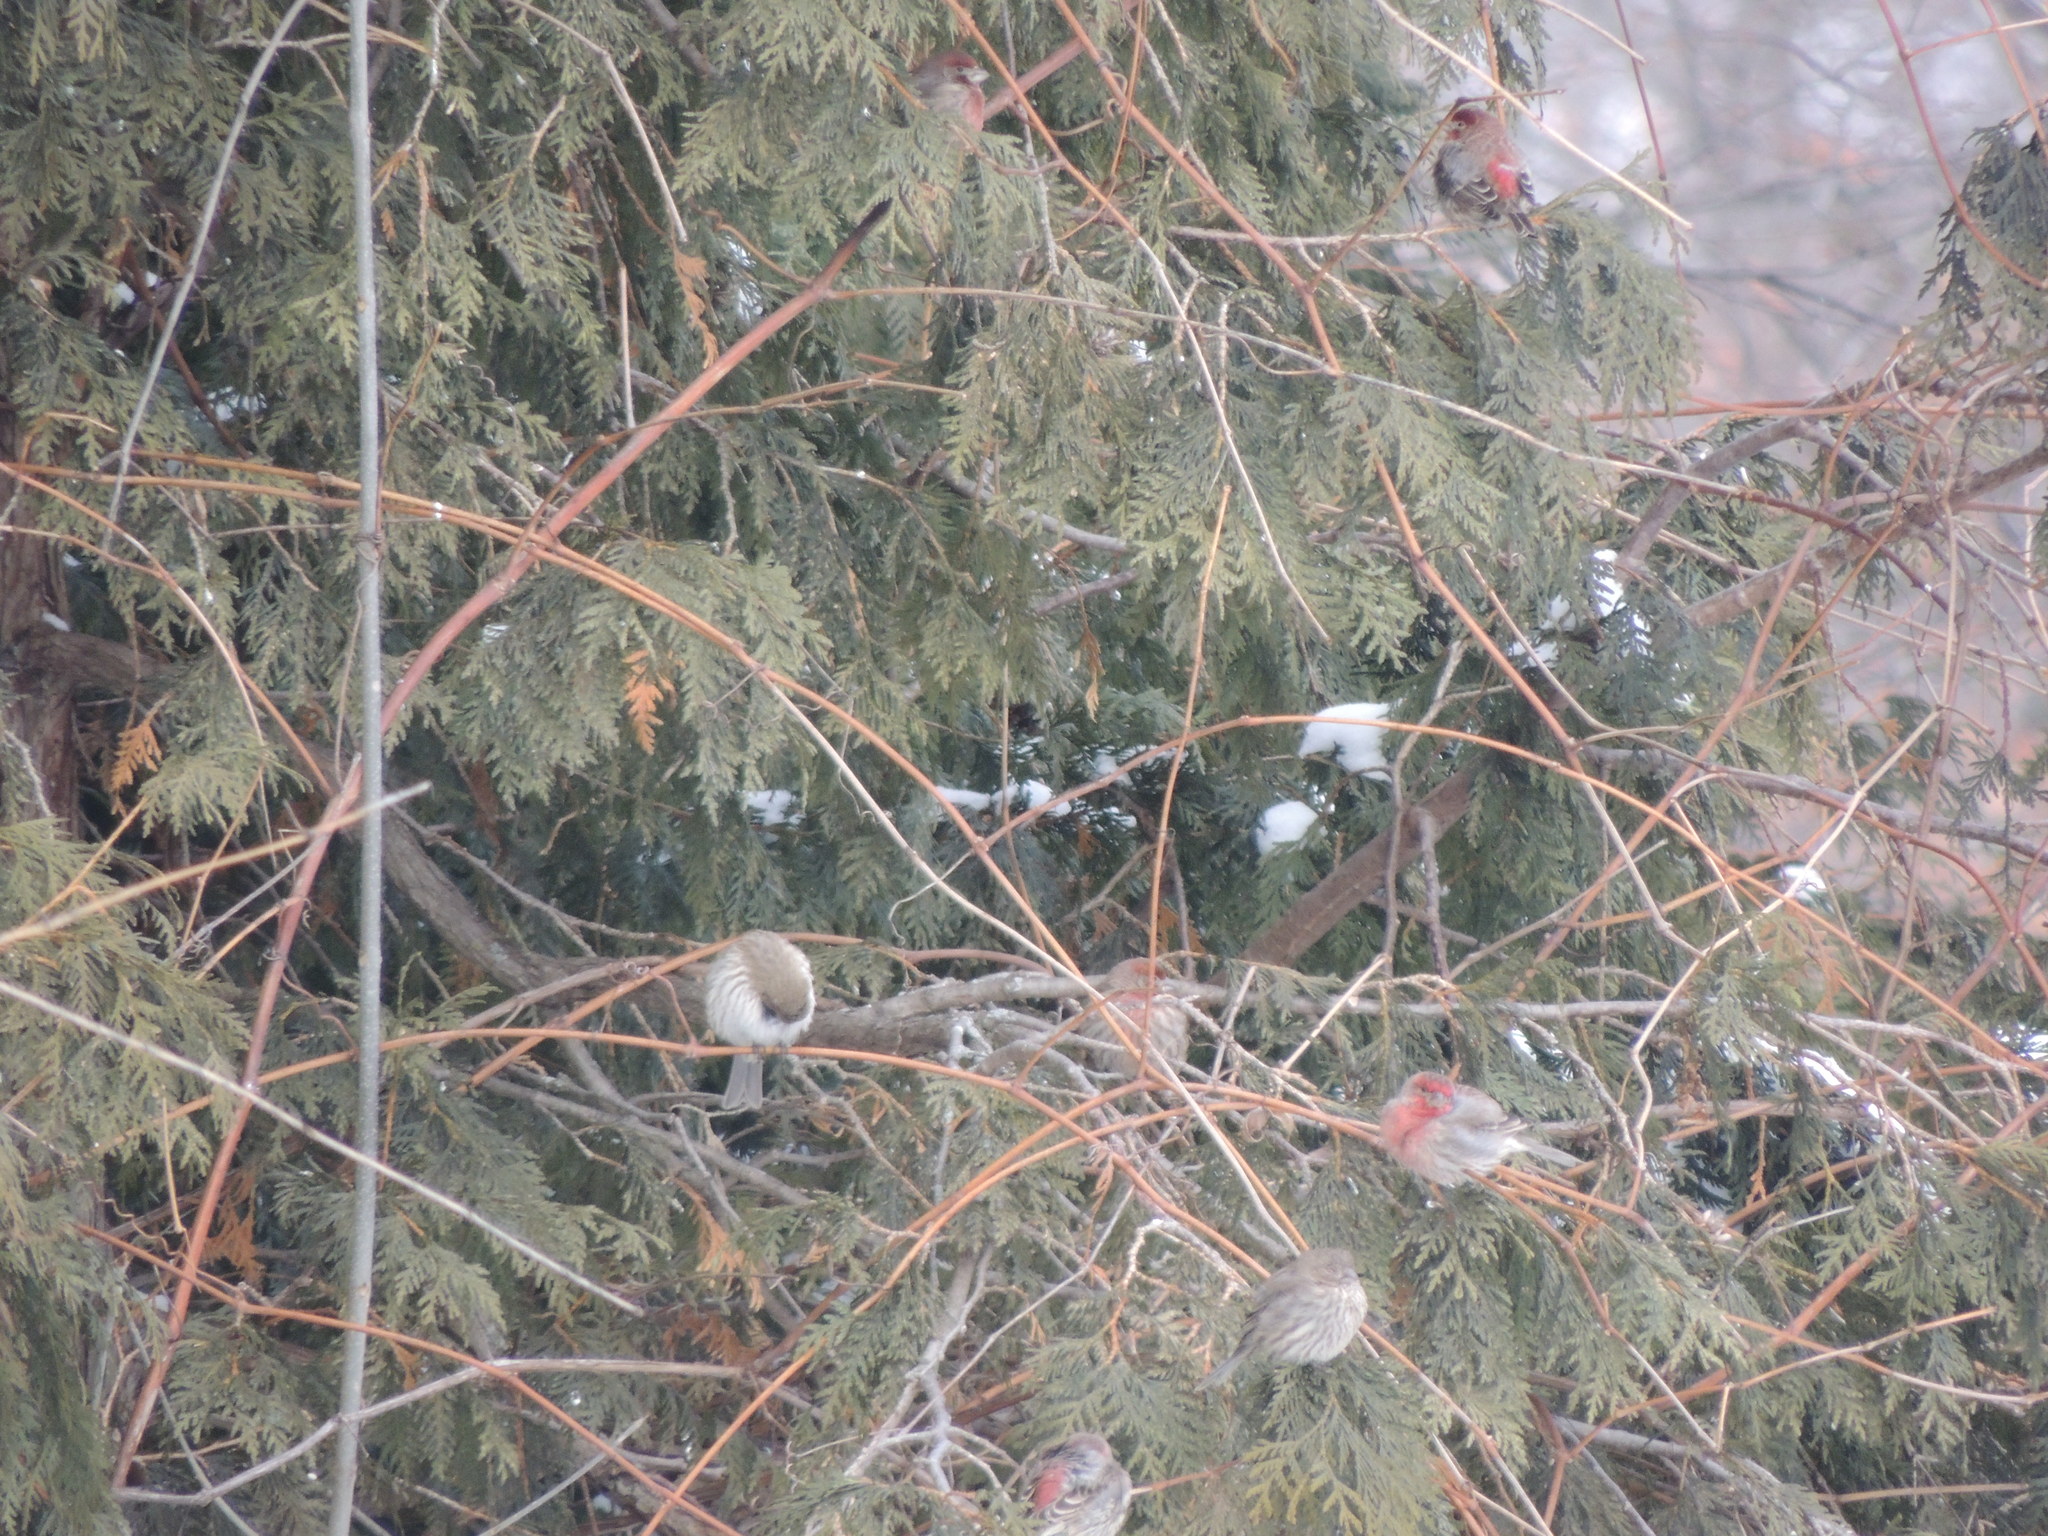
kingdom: Animalia
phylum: Chordata
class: Aves
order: Passeriformes
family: Fringillidae
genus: Haemorhous
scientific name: Haemorhous mexicanus
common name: House finch
